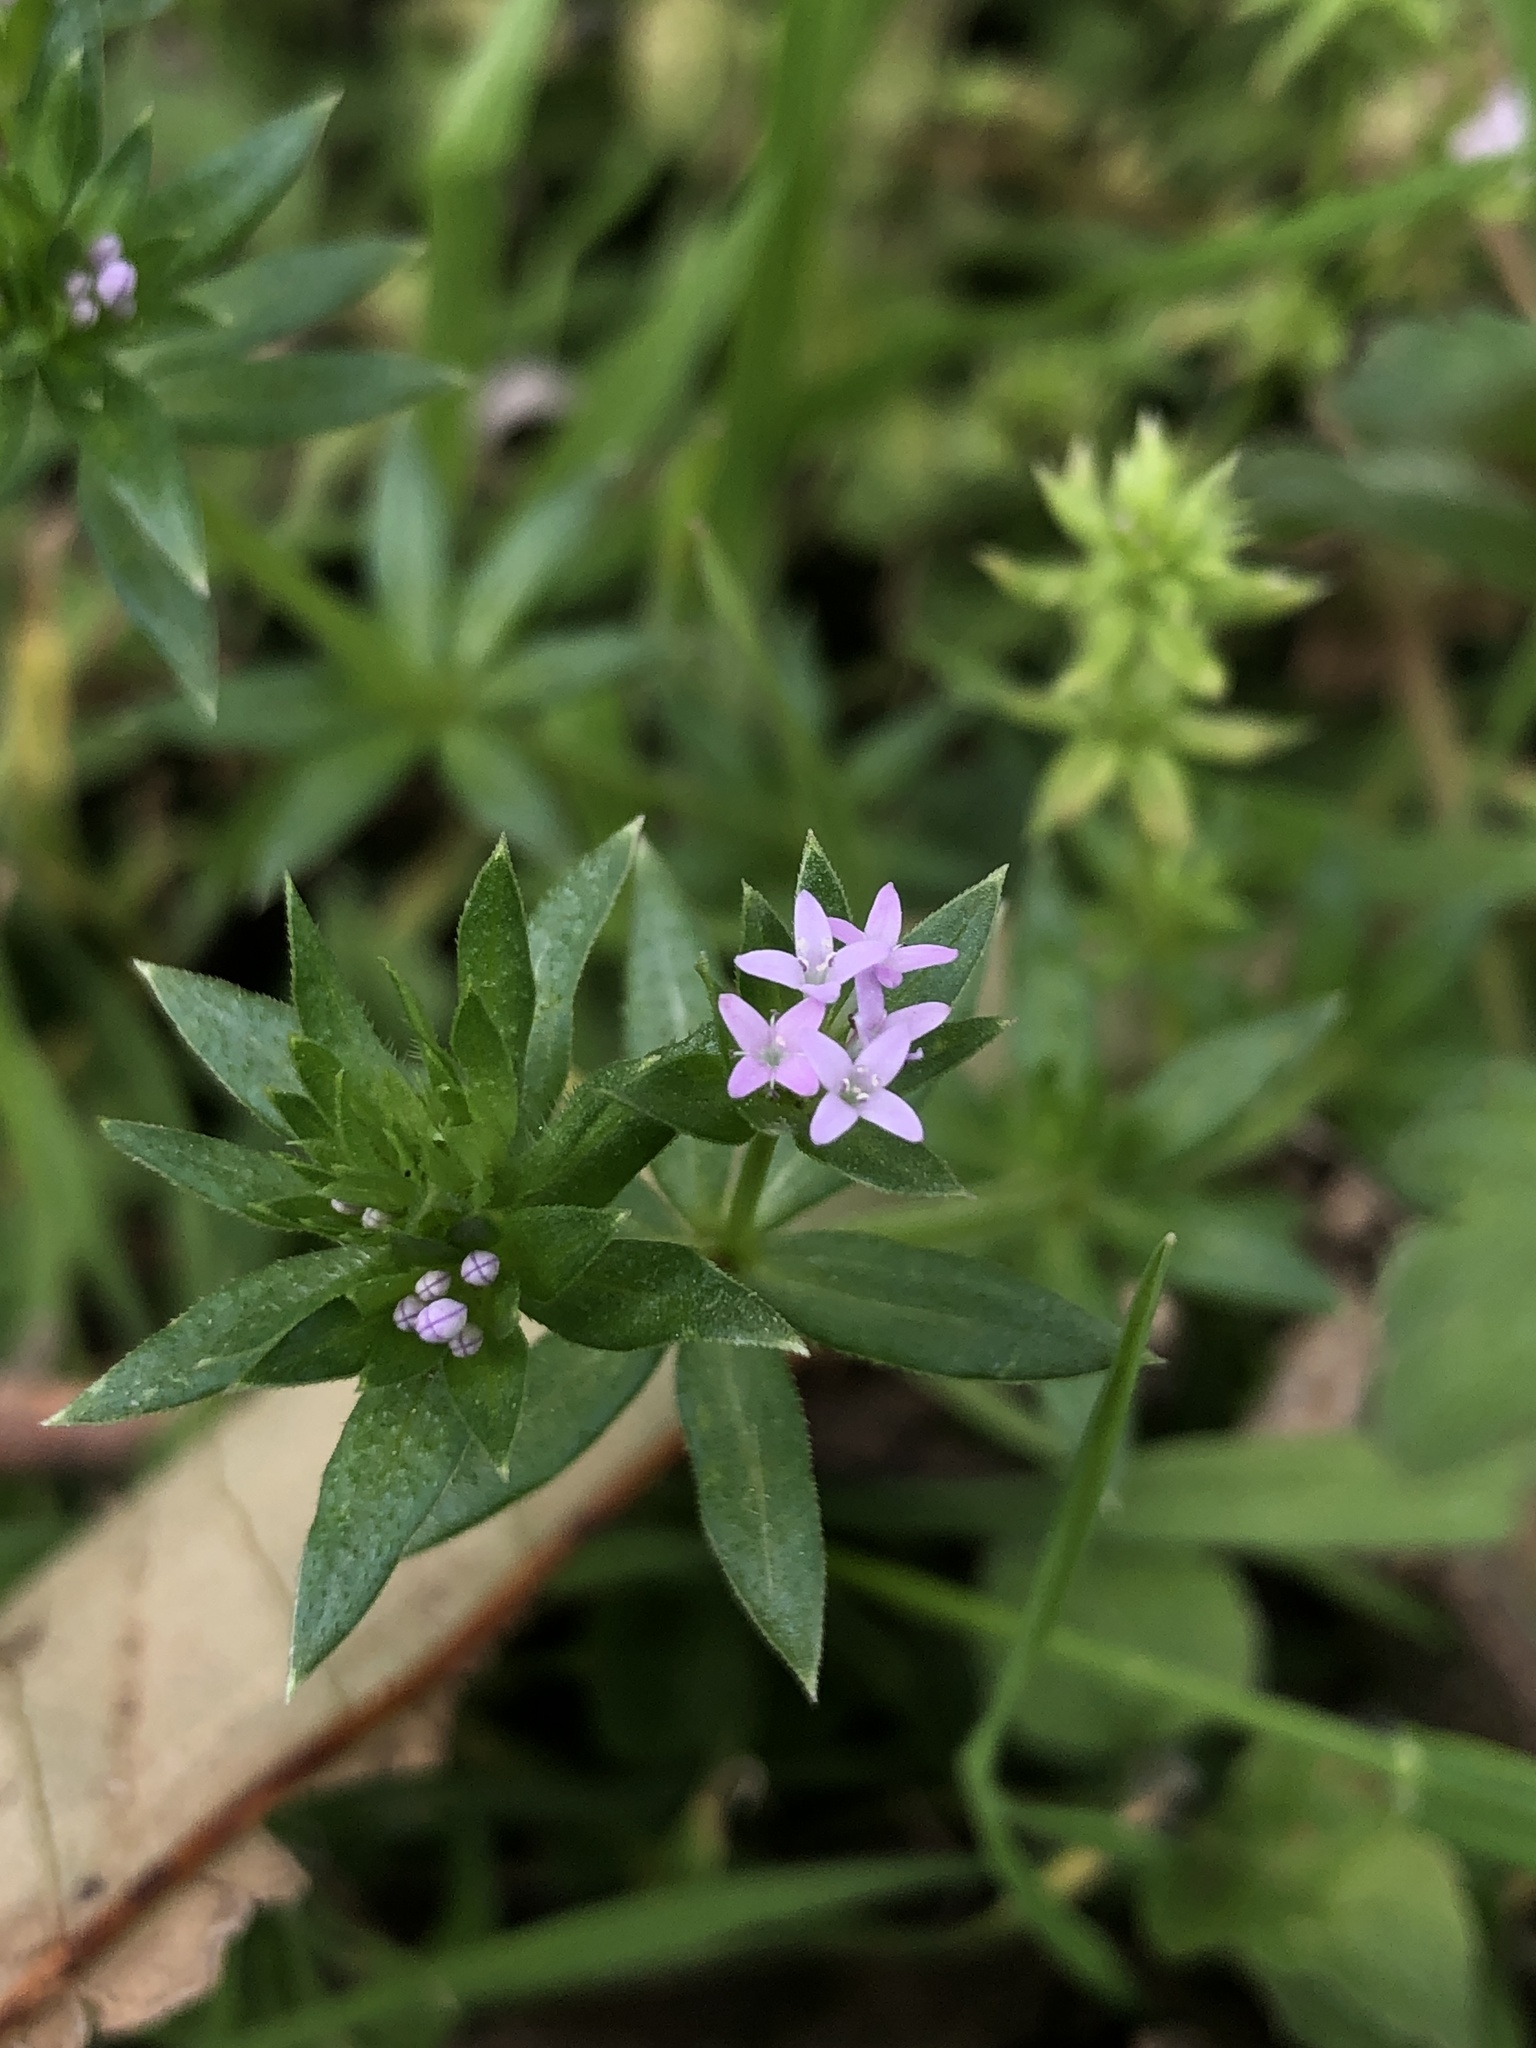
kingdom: Plantae
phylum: Tracheophyta
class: Magnoliopsida
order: Gentianales
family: Rubiaceae
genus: Sherardia
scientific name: Sherardia arvensis
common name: Field madder
